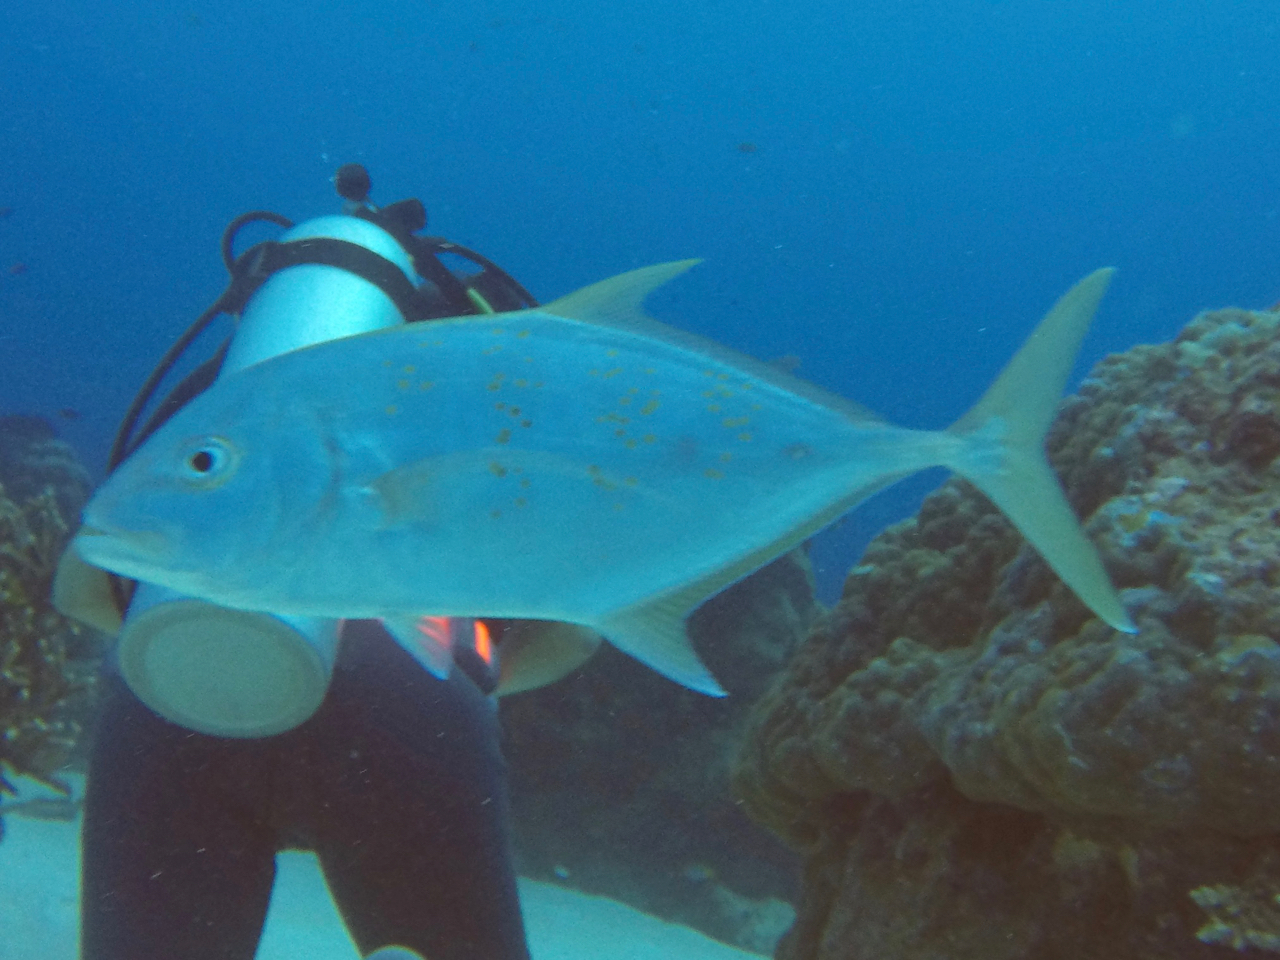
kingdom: Animalia
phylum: Chordata
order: Perciformes
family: Carangidae
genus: Carangoides
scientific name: Carangoides Turrum fulvoguttatum
